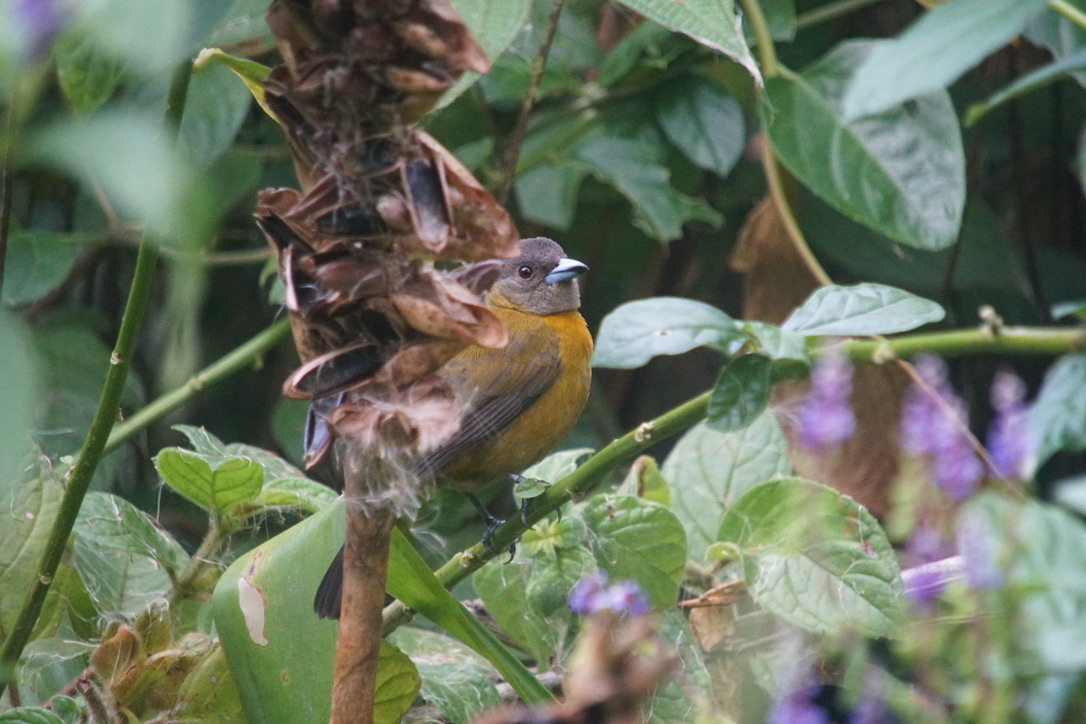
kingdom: Animalia
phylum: Chordata
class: Aves
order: Passeriformes
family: Thraupidae
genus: Ramphocelus
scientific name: Ramphocelus passerinii
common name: Passerini's tanager
